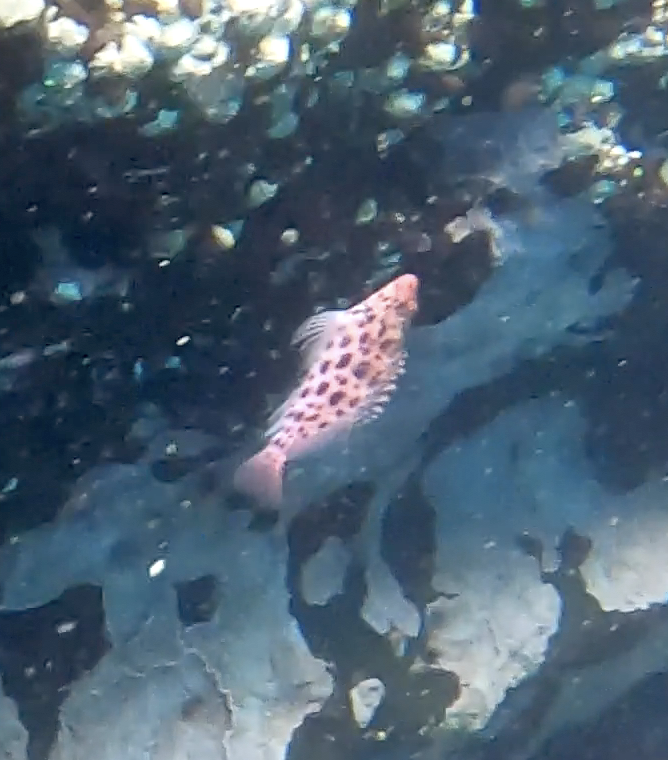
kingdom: Animalia
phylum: Chordata
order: Perciformes
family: Cirrhitidae
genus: Cirrhitichthys
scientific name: Cirrhitichthys oxycephalus
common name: Spotted hawkfish
